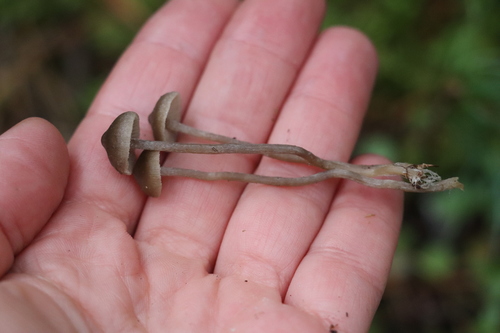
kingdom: Fungi
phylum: Basidiomycota
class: Agaricomycetes
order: Agaricales
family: Tricholomataceae
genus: Clitocybe
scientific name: Clitocybe
